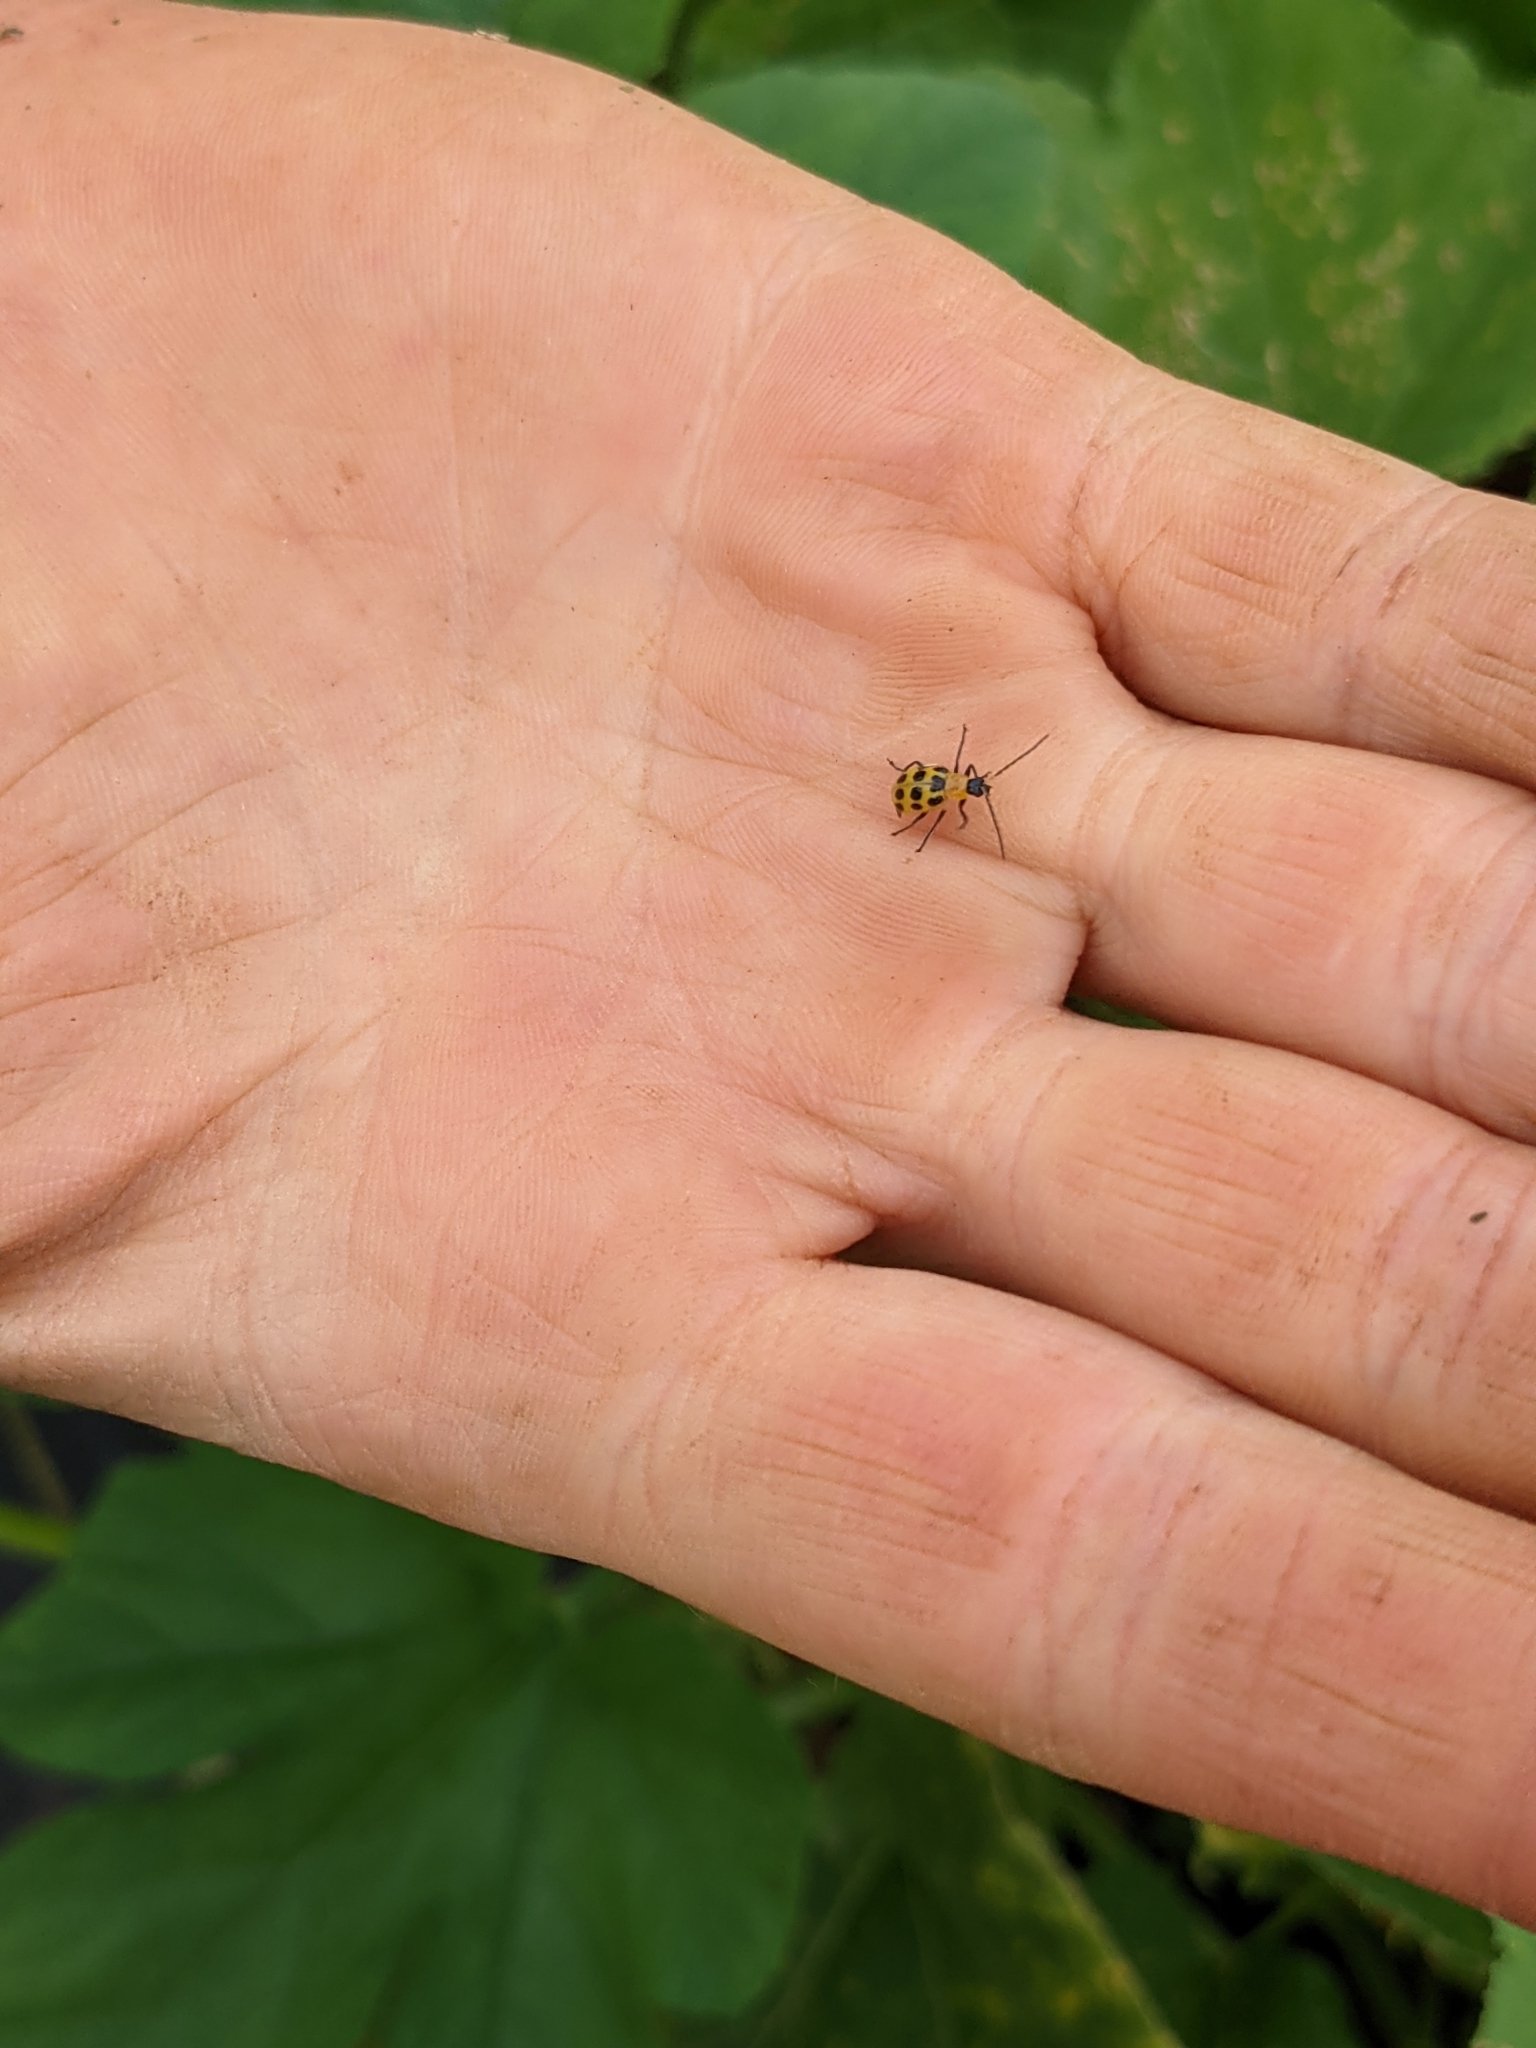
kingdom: Animalia
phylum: Arthropoda
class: Insecta
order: Coleoptera
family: Chrysomelidae
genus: Diabrotica
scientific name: Diabrotica undecimpunctata
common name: Spotted cucumber beetle
